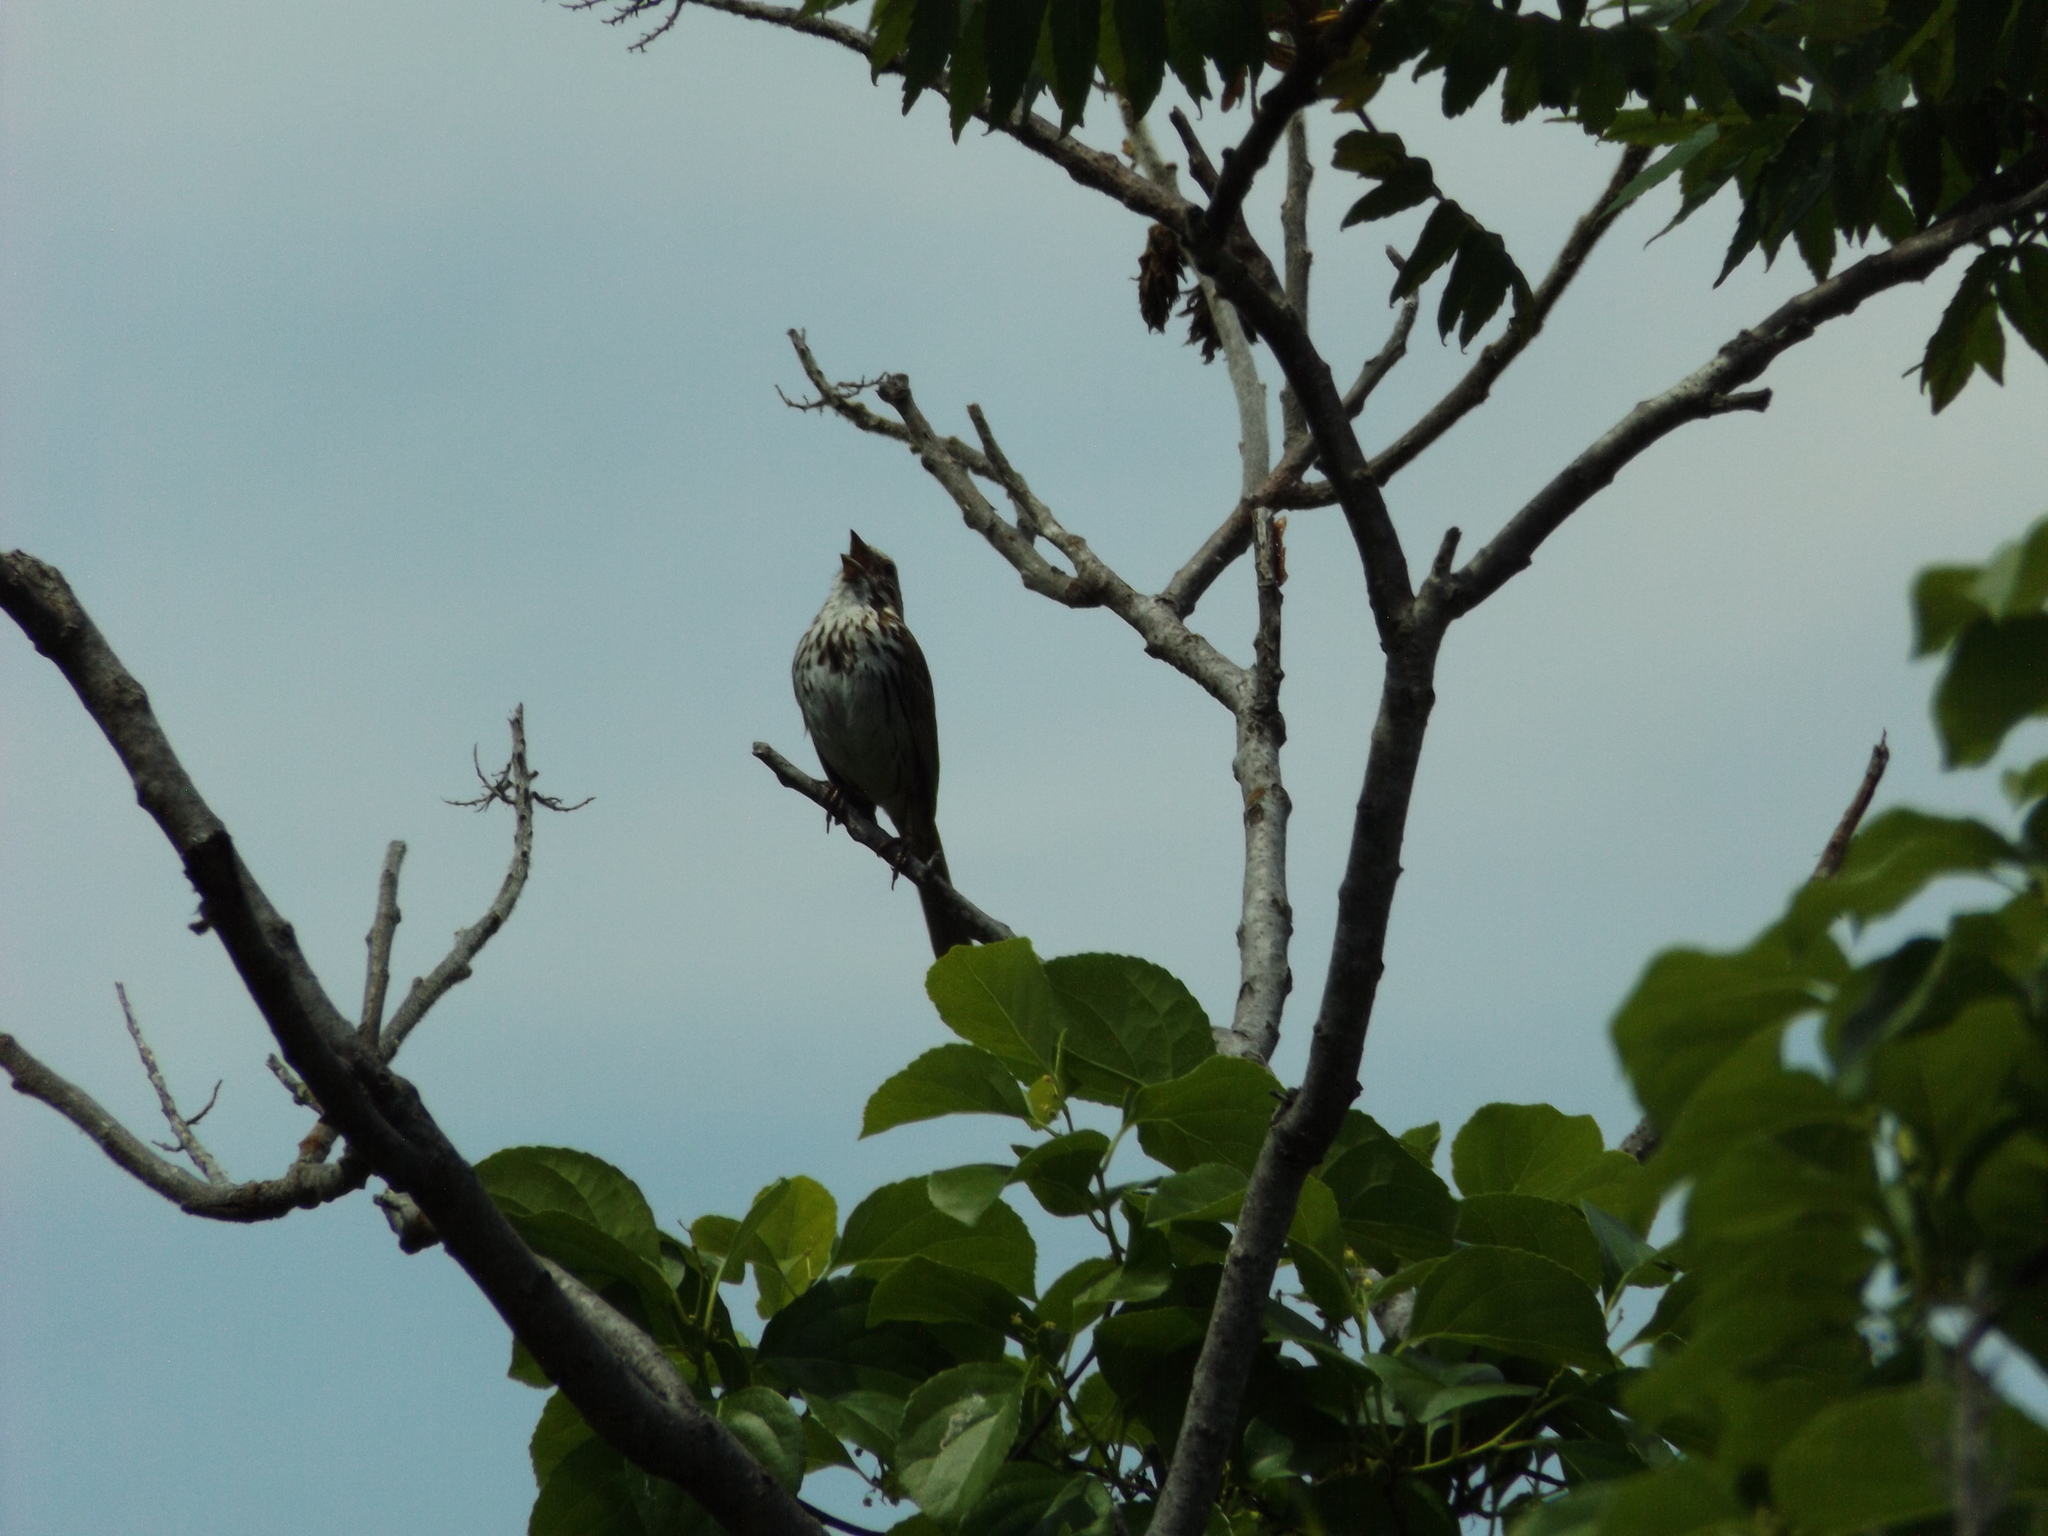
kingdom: Animalia
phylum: Chordata
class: Aves
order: Passeriformes
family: Passerellidae
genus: Melospiza
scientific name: Melospiza melodia
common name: Song sparrow
